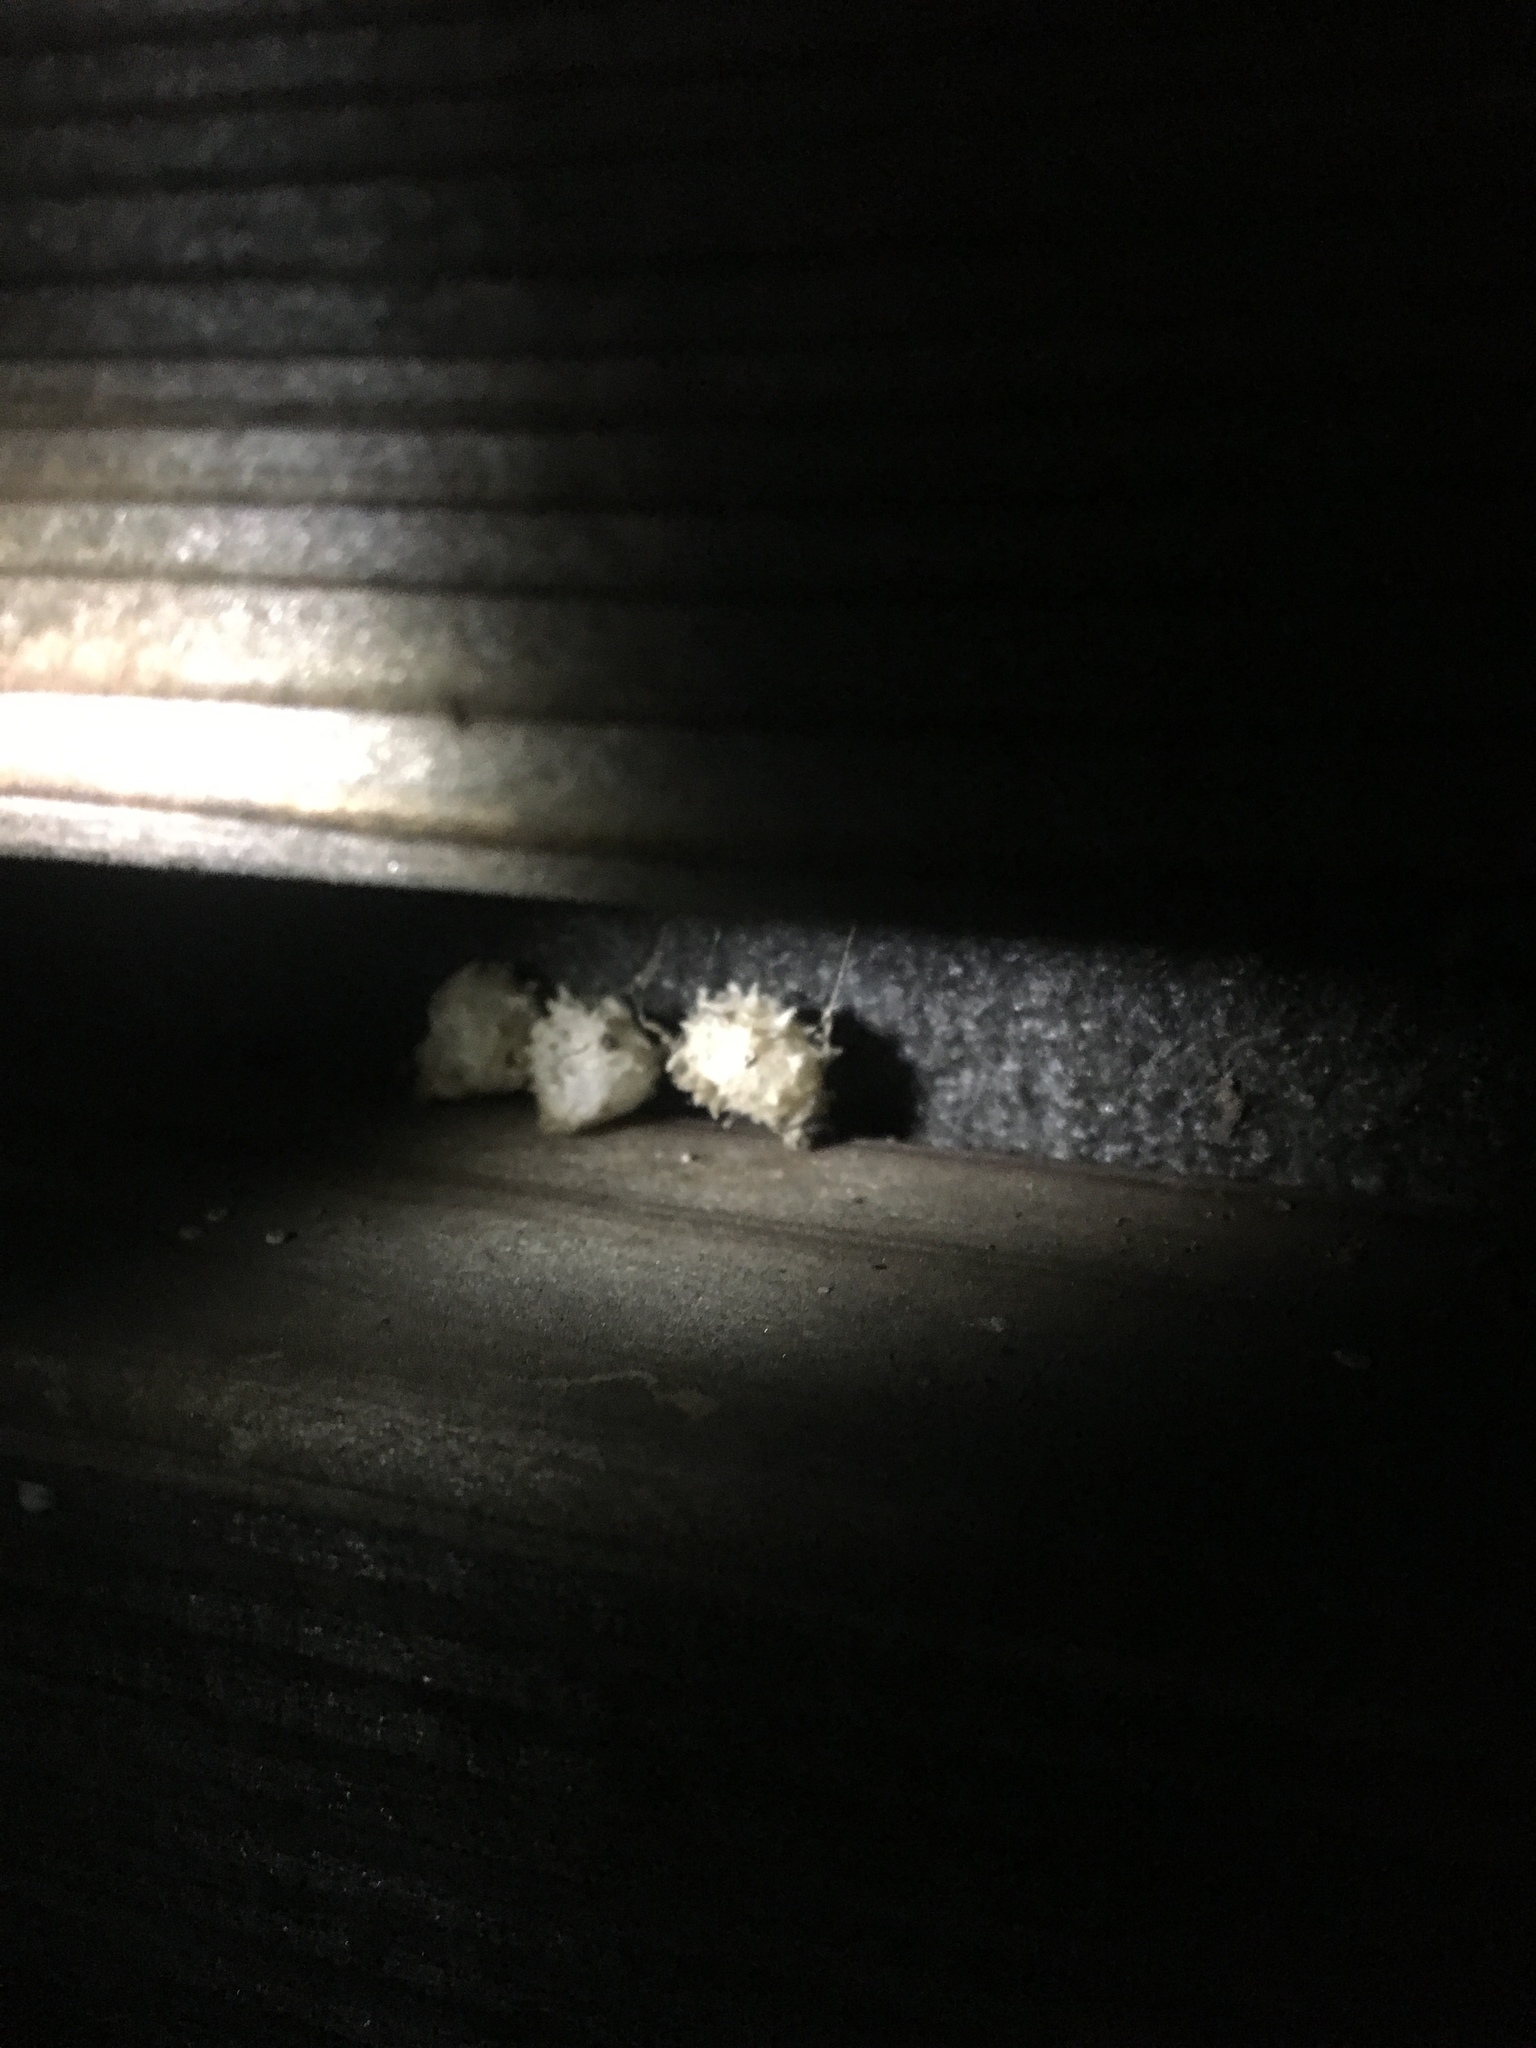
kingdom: Animalia
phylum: Arthropoda
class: Arachnida
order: Araneae
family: Theridiidae
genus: Latrodectus
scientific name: Latrodectus geometricus
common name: Brown widow spider
